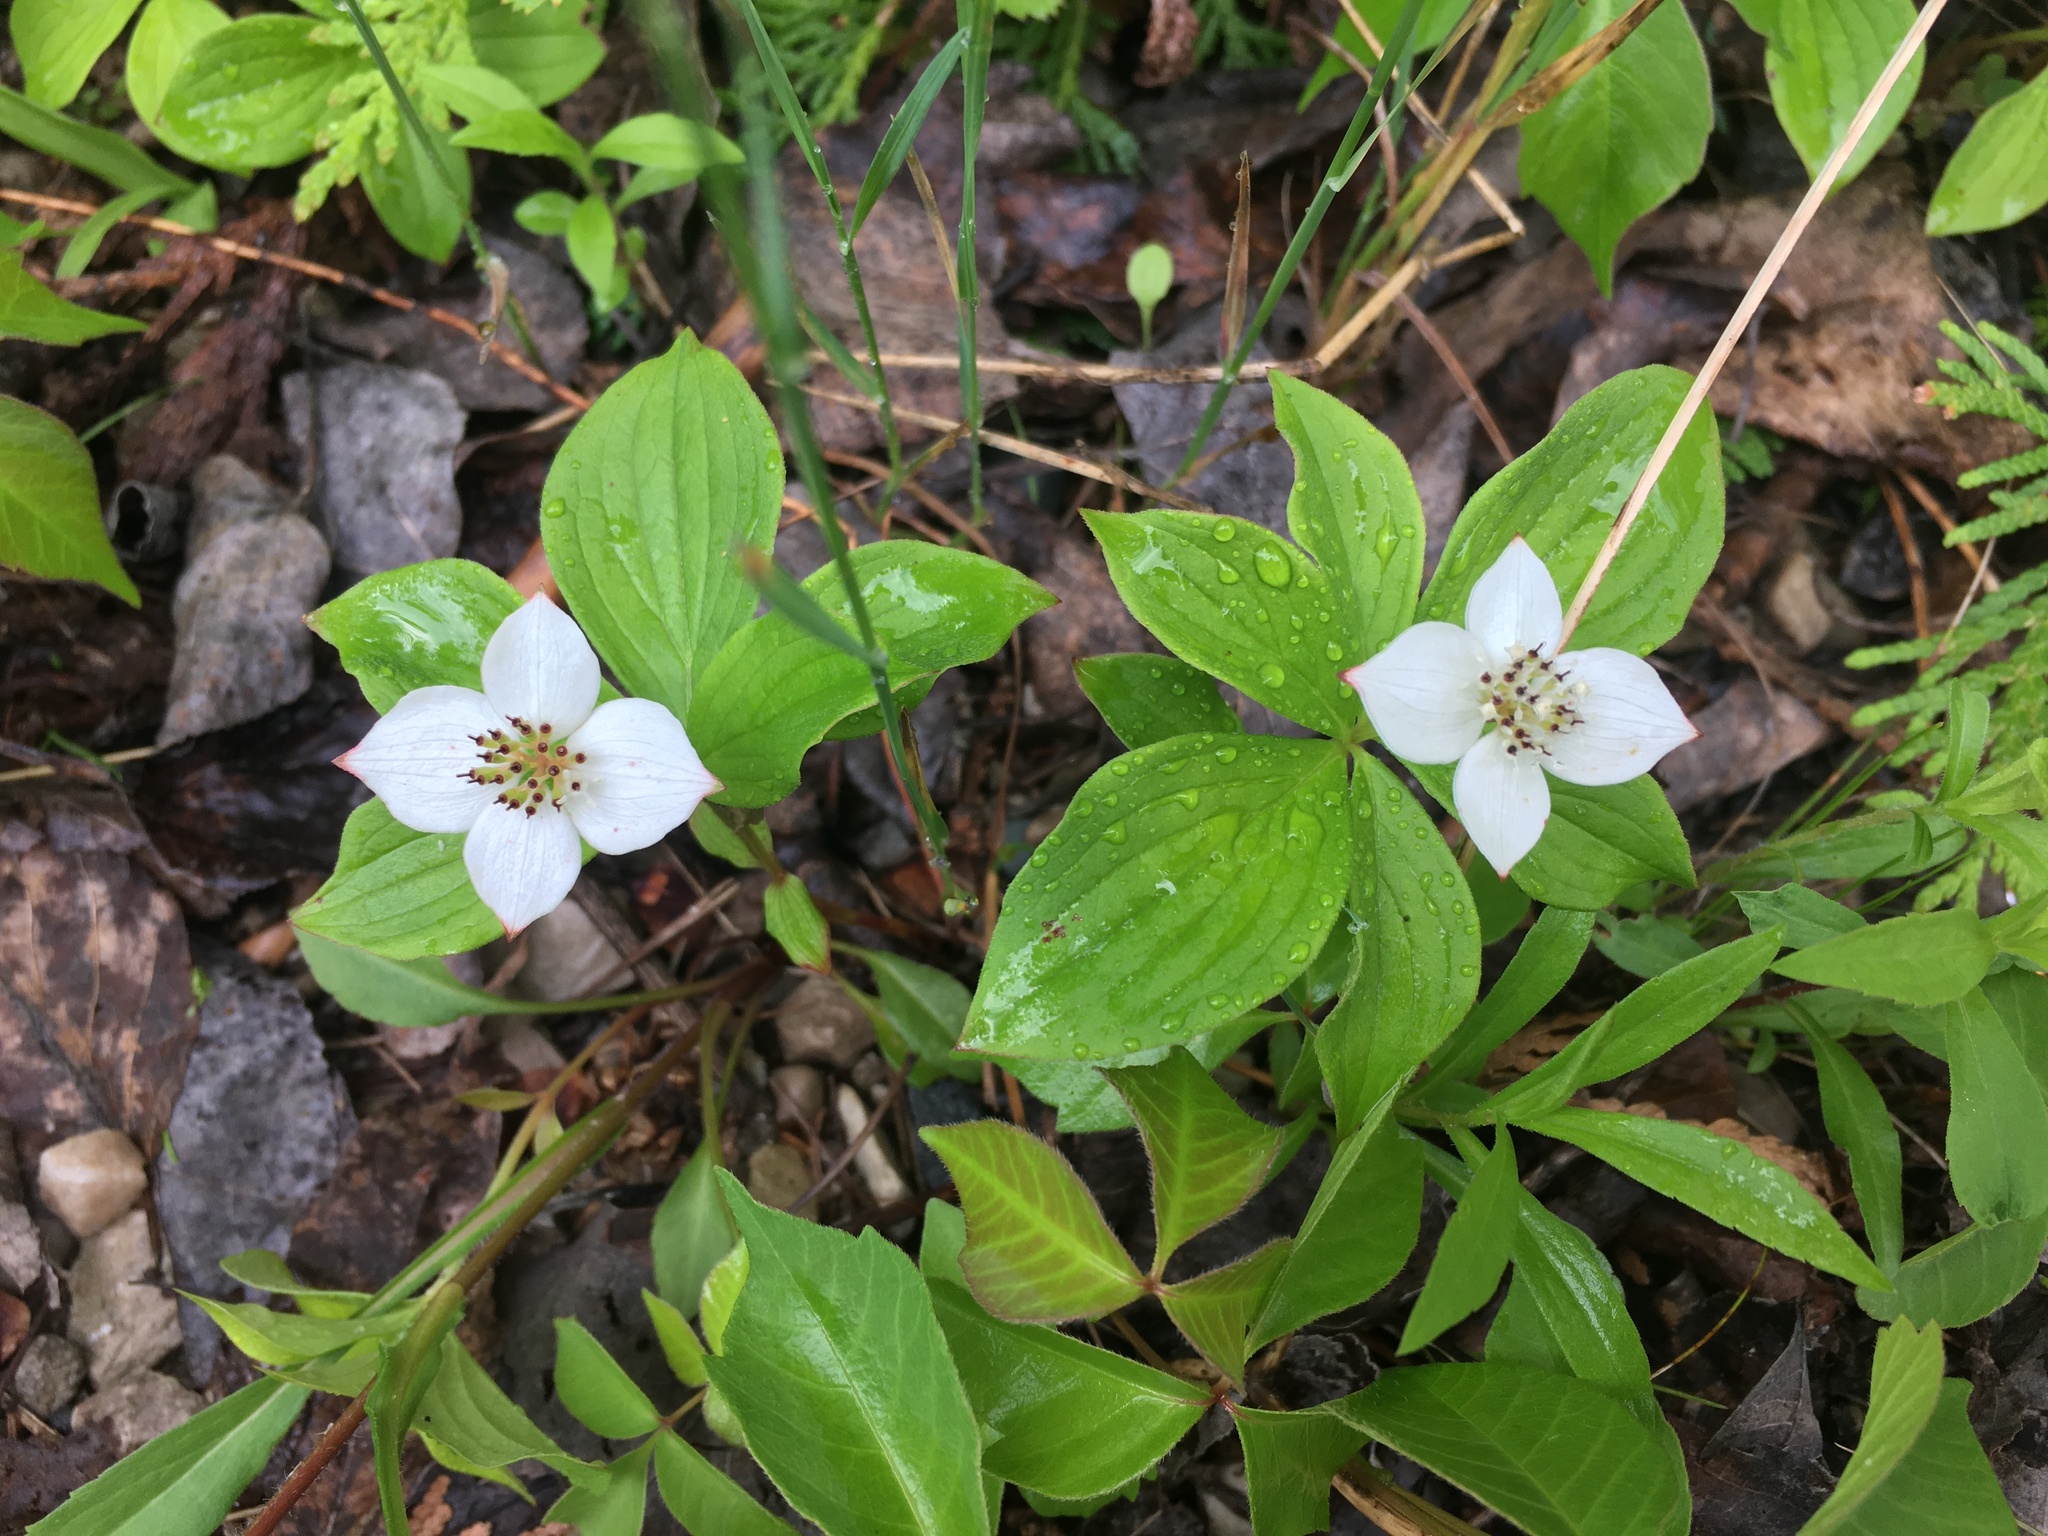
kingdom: Plantae
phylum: Tracheophyta
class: Magnoliopsida
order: Cornales
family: Cornaceae
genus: Cornus
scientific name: Cornus canadensis
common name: Creeping dogwood
